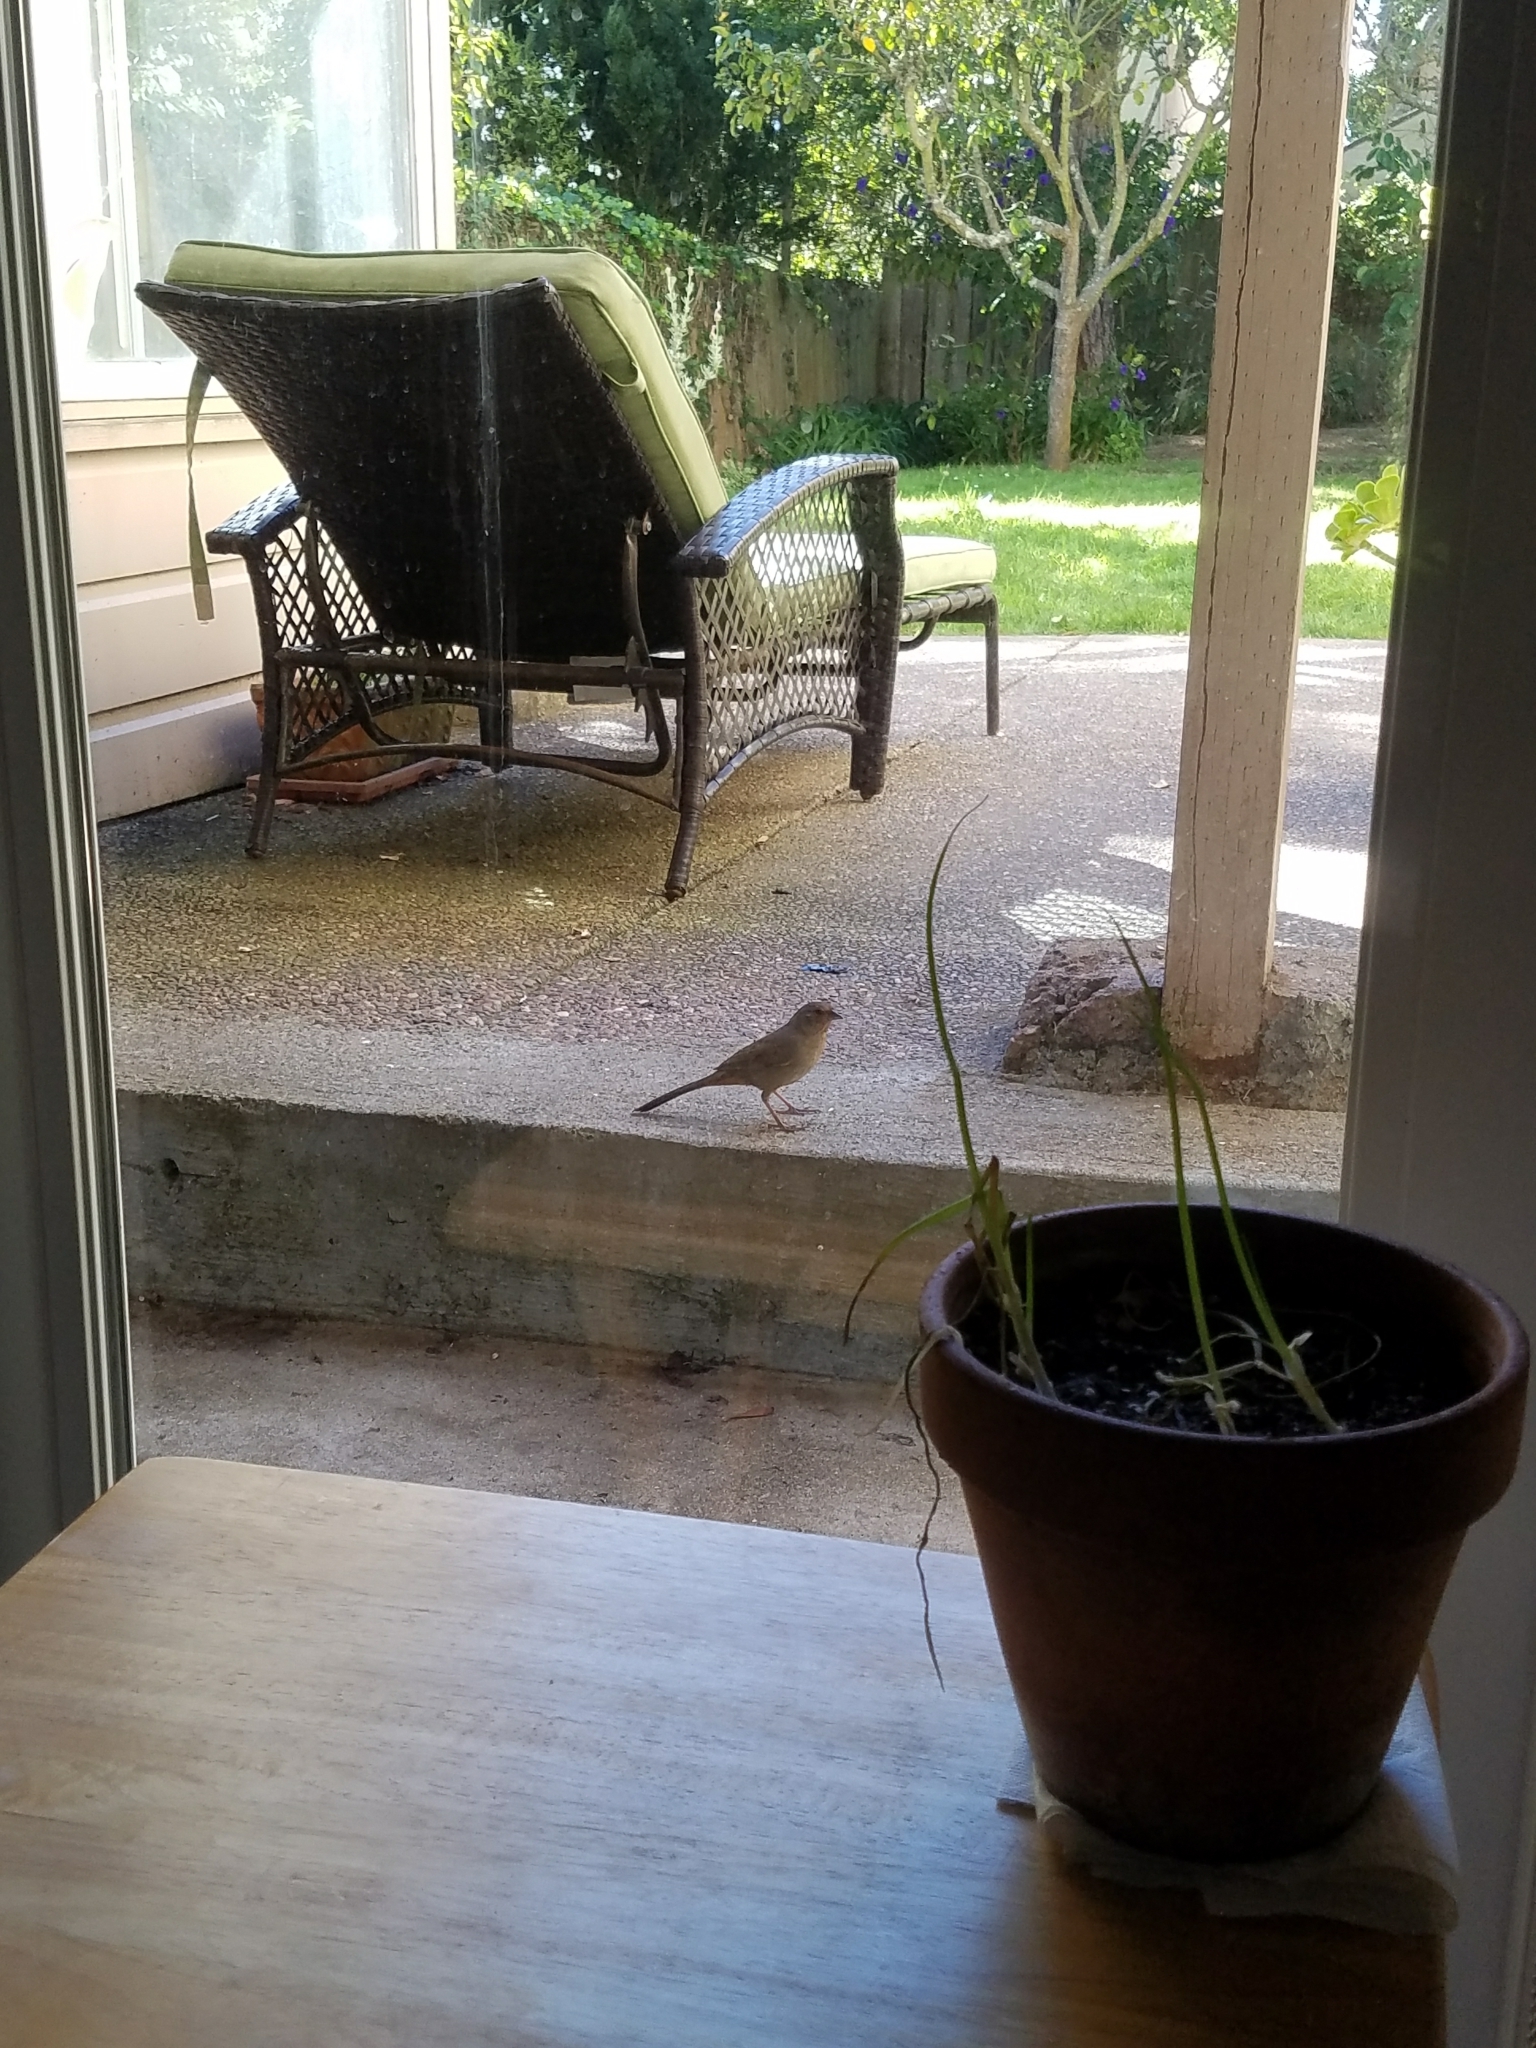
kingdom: Animalia
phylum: Chordata
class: Aves
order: Passeriformes
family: Passerellidae
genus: Melozone
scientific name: Melozone crissalis
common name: California towhee
